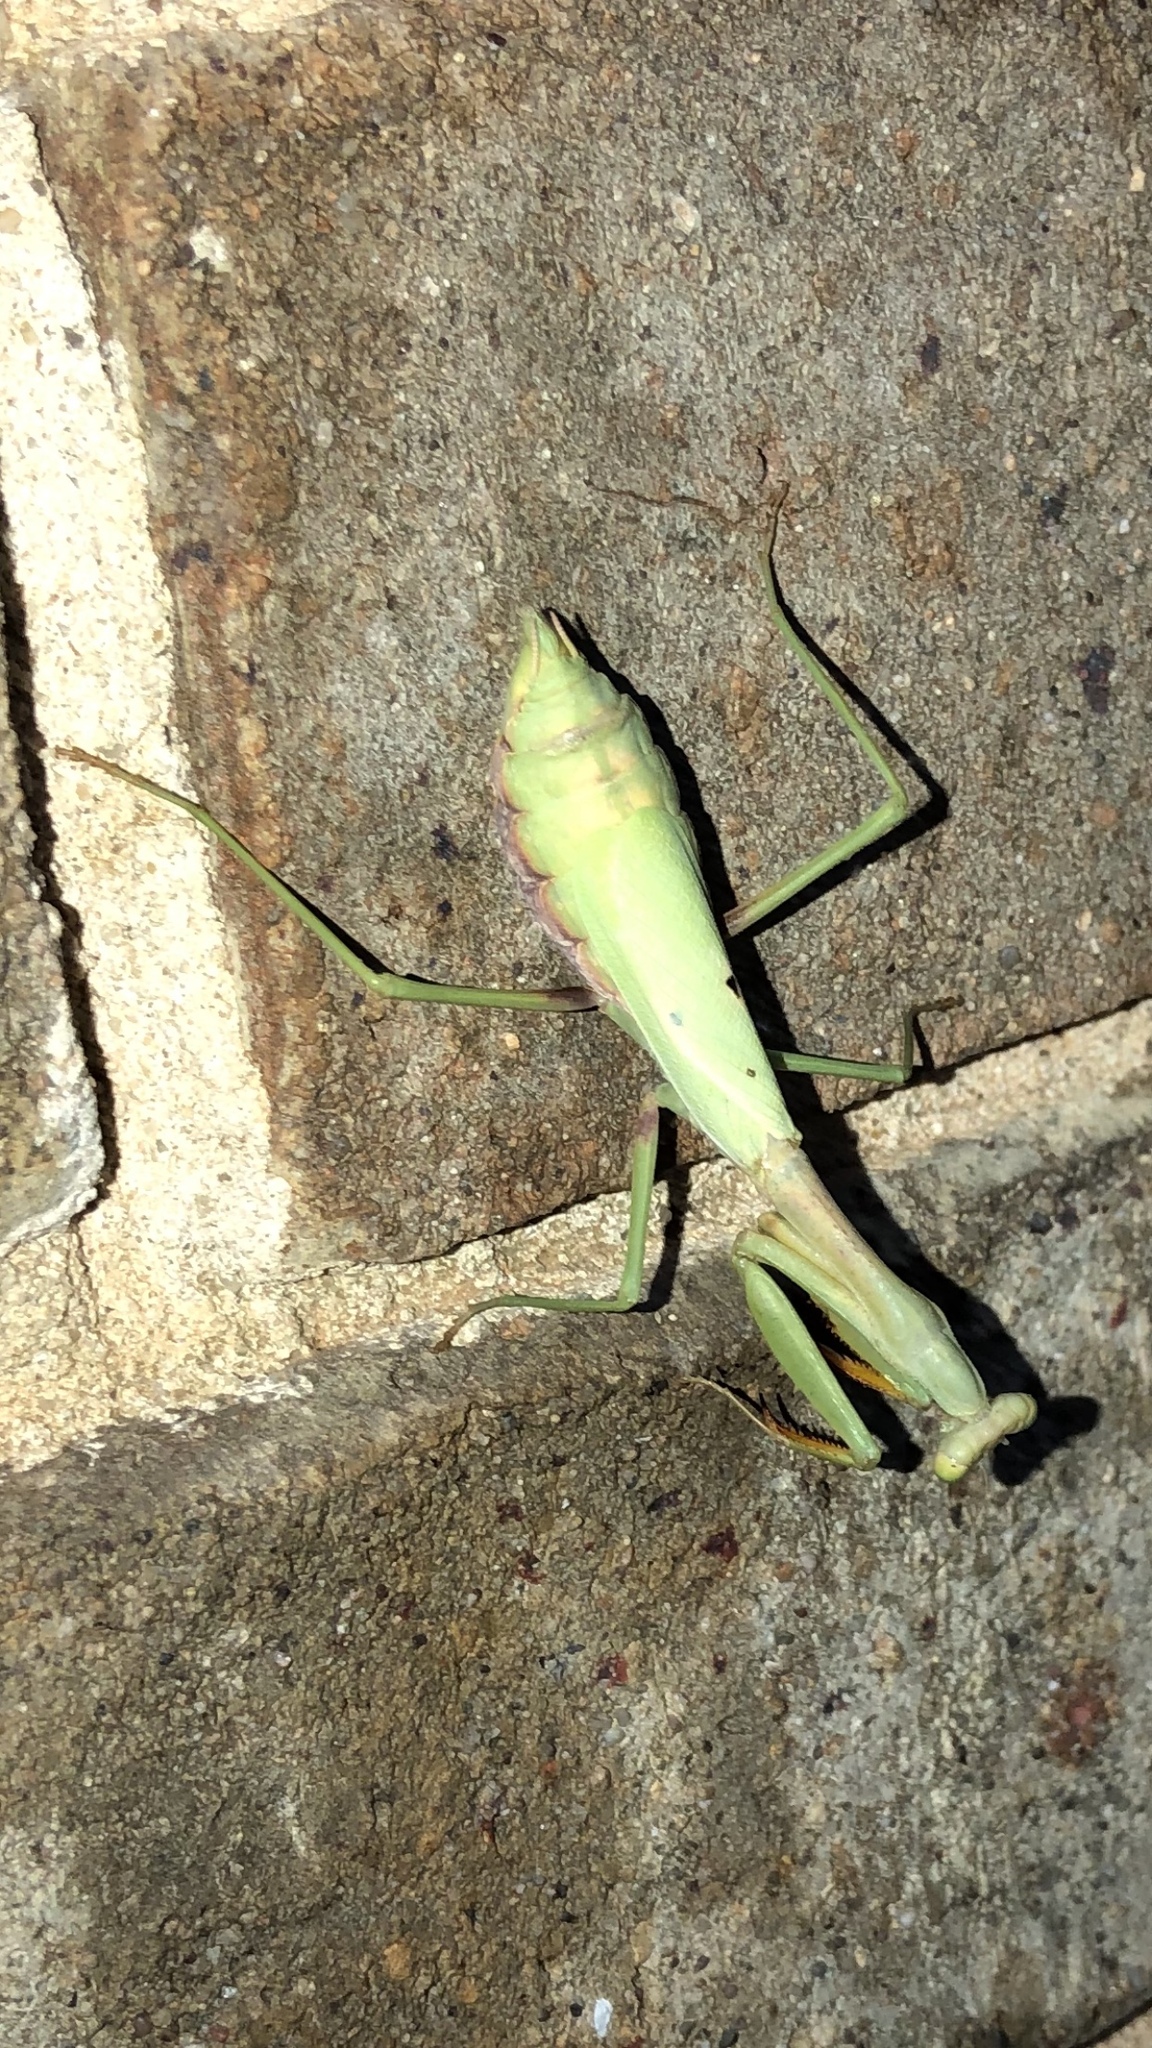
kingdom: Animalia
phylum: Arthropoda
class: Insecta
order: Mantodea
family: Mantidae
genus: Stagmomantis
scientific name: Stagmomantis carolina
